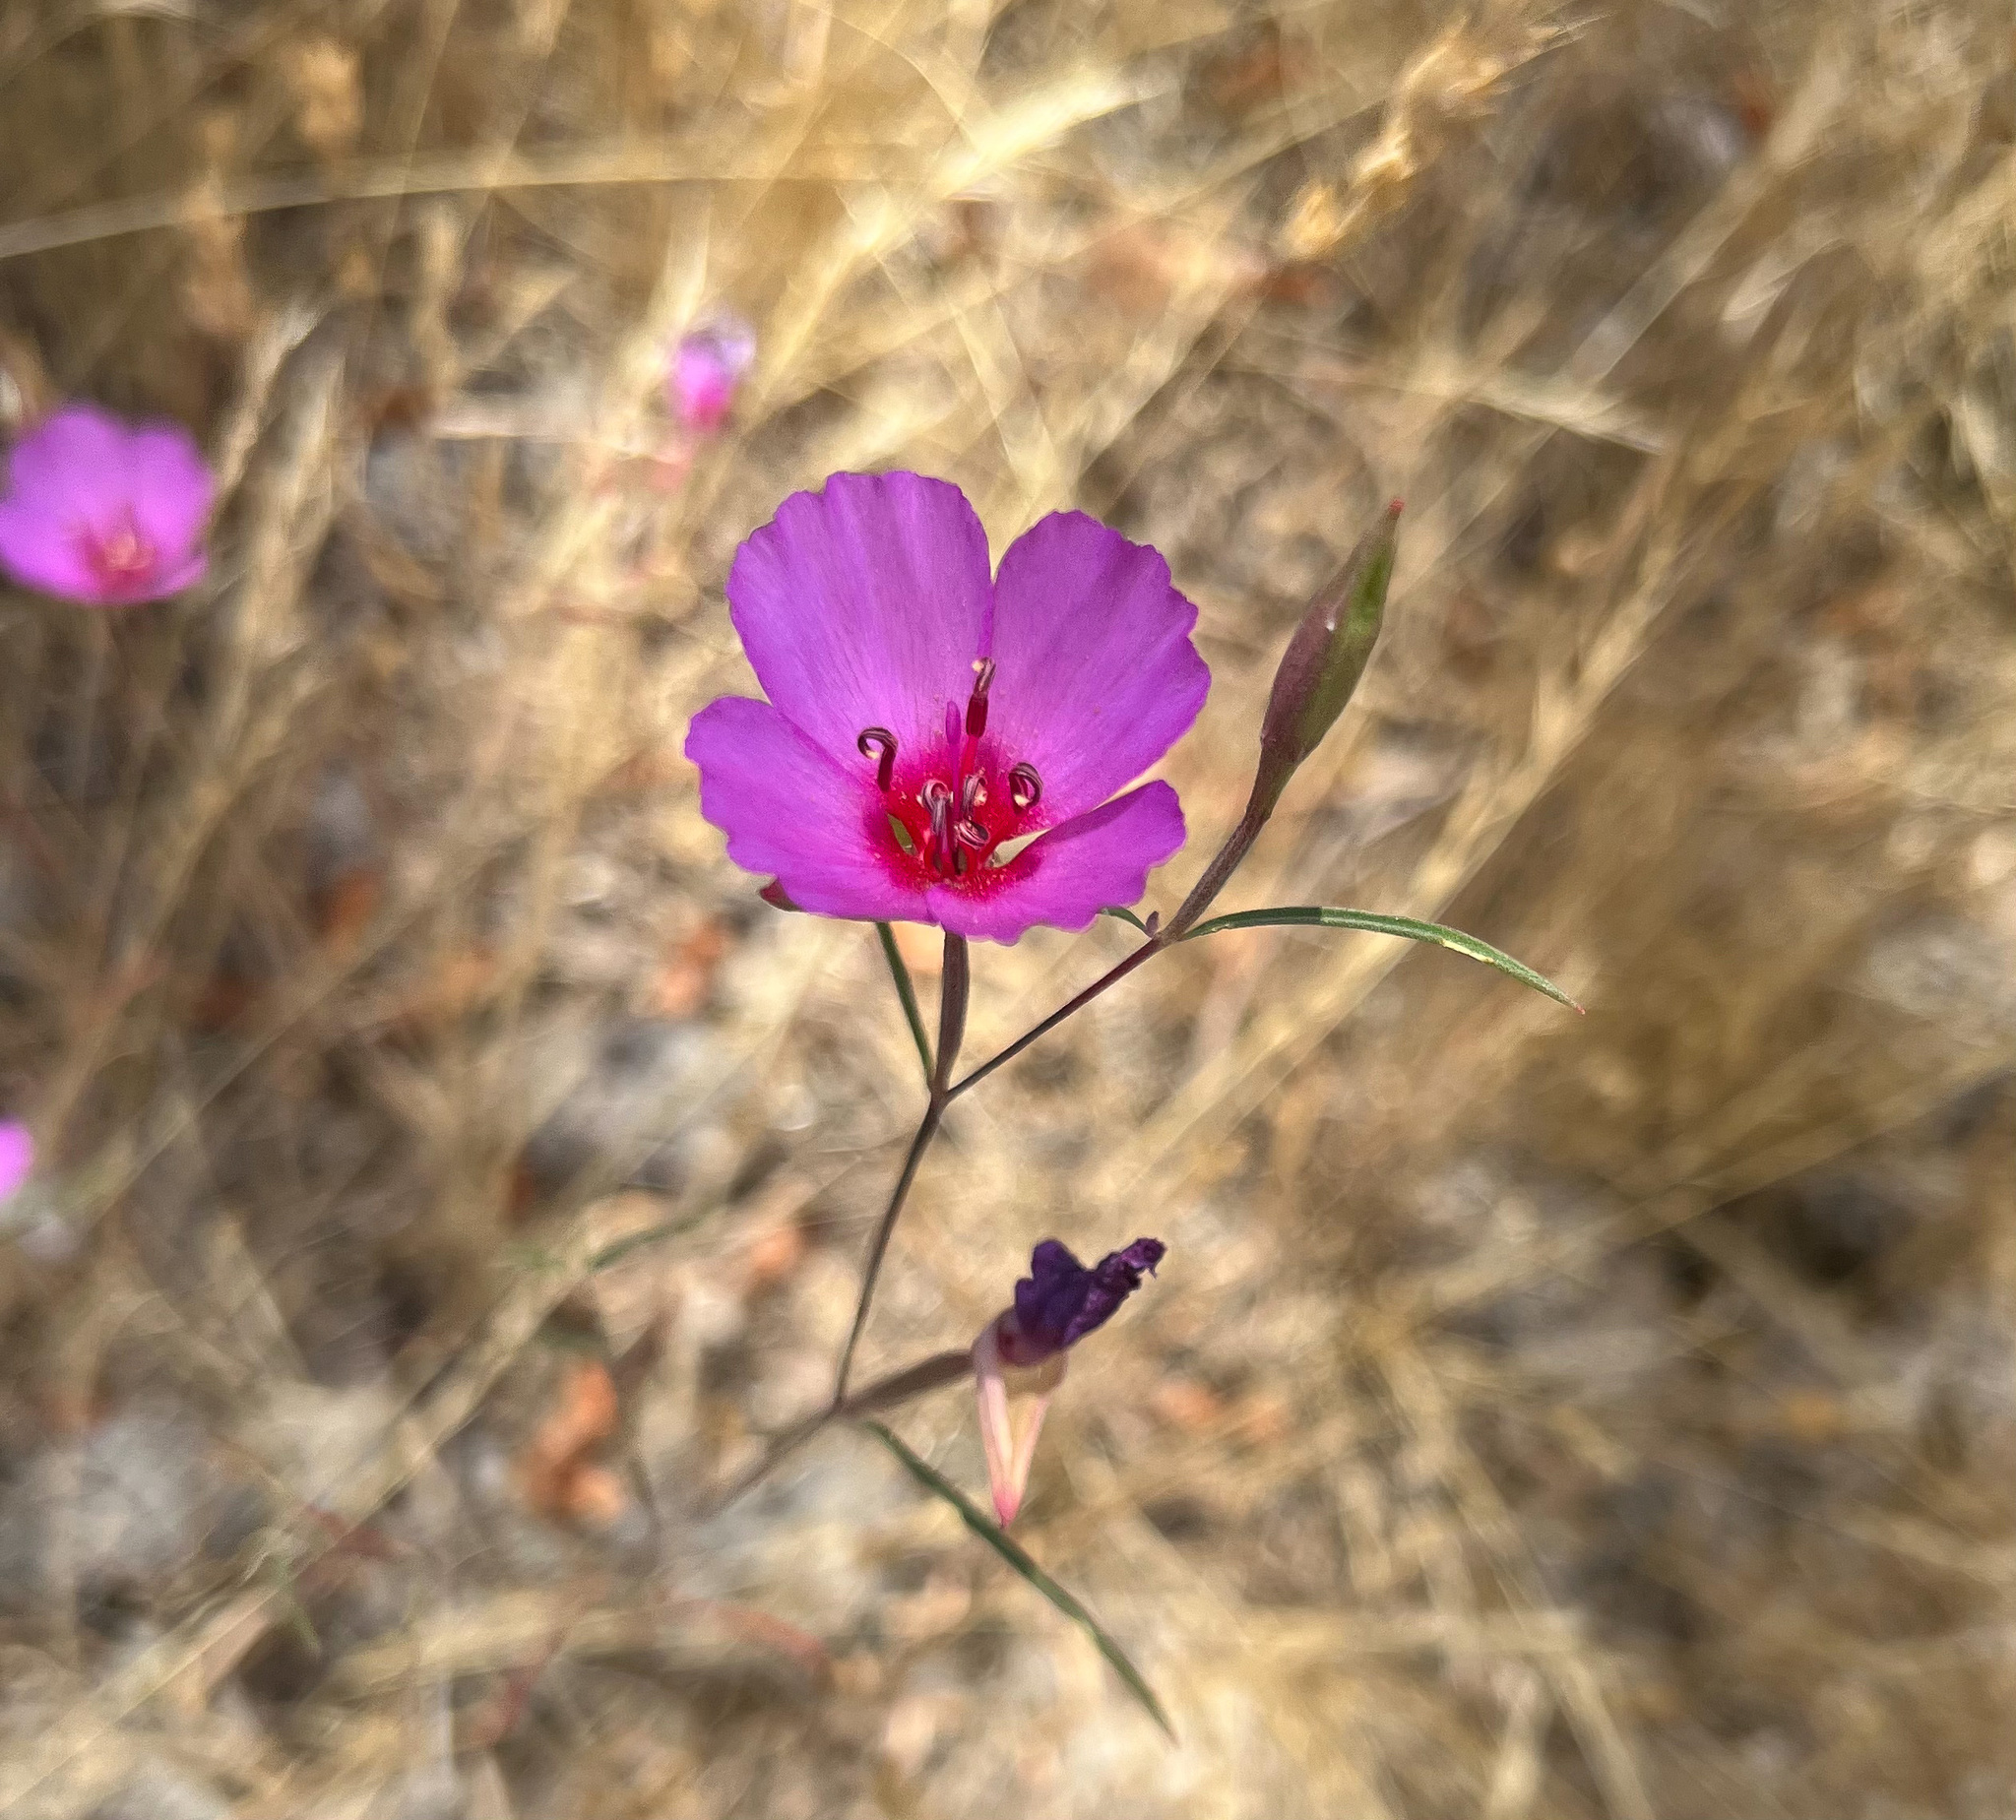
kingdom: Plantae
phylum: Tracheophyta
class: Magnoliopsida
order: Myrtales
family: Onagraceae
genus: Clarkia
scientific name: Clarkia rubicunda
